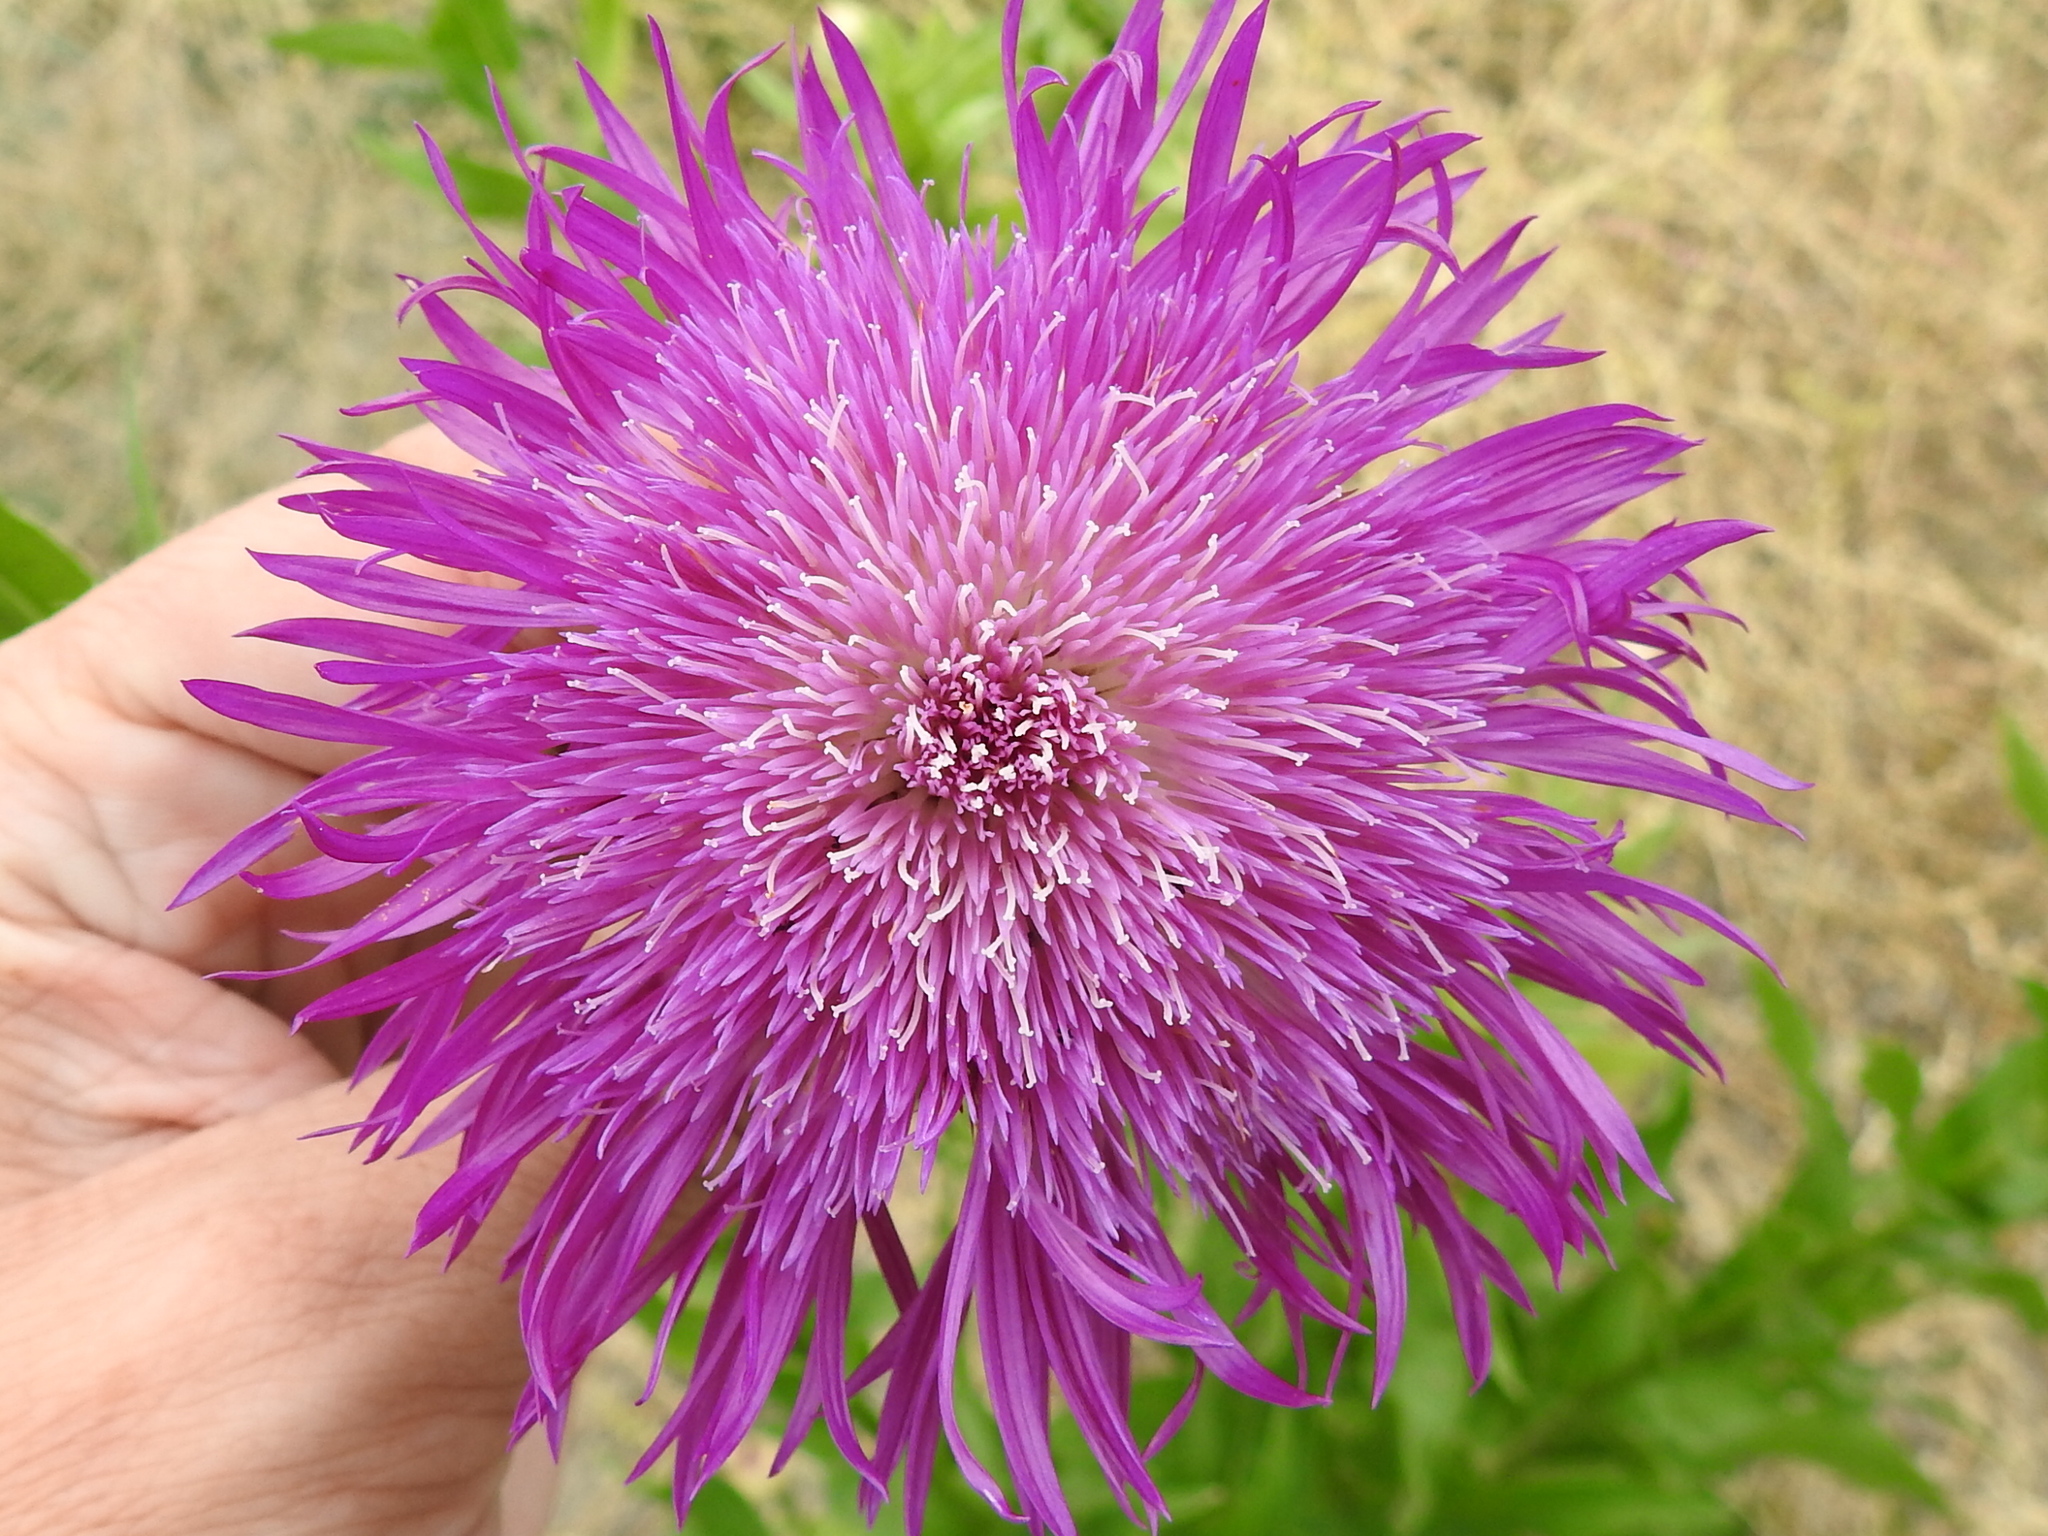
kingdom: Plantae
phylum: Tracheophyta
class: Magnoliopsida
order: Asterales
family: Asteraceae
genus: Plectocephalus
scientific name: Plectocephalus americanus
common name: American basket-flower
